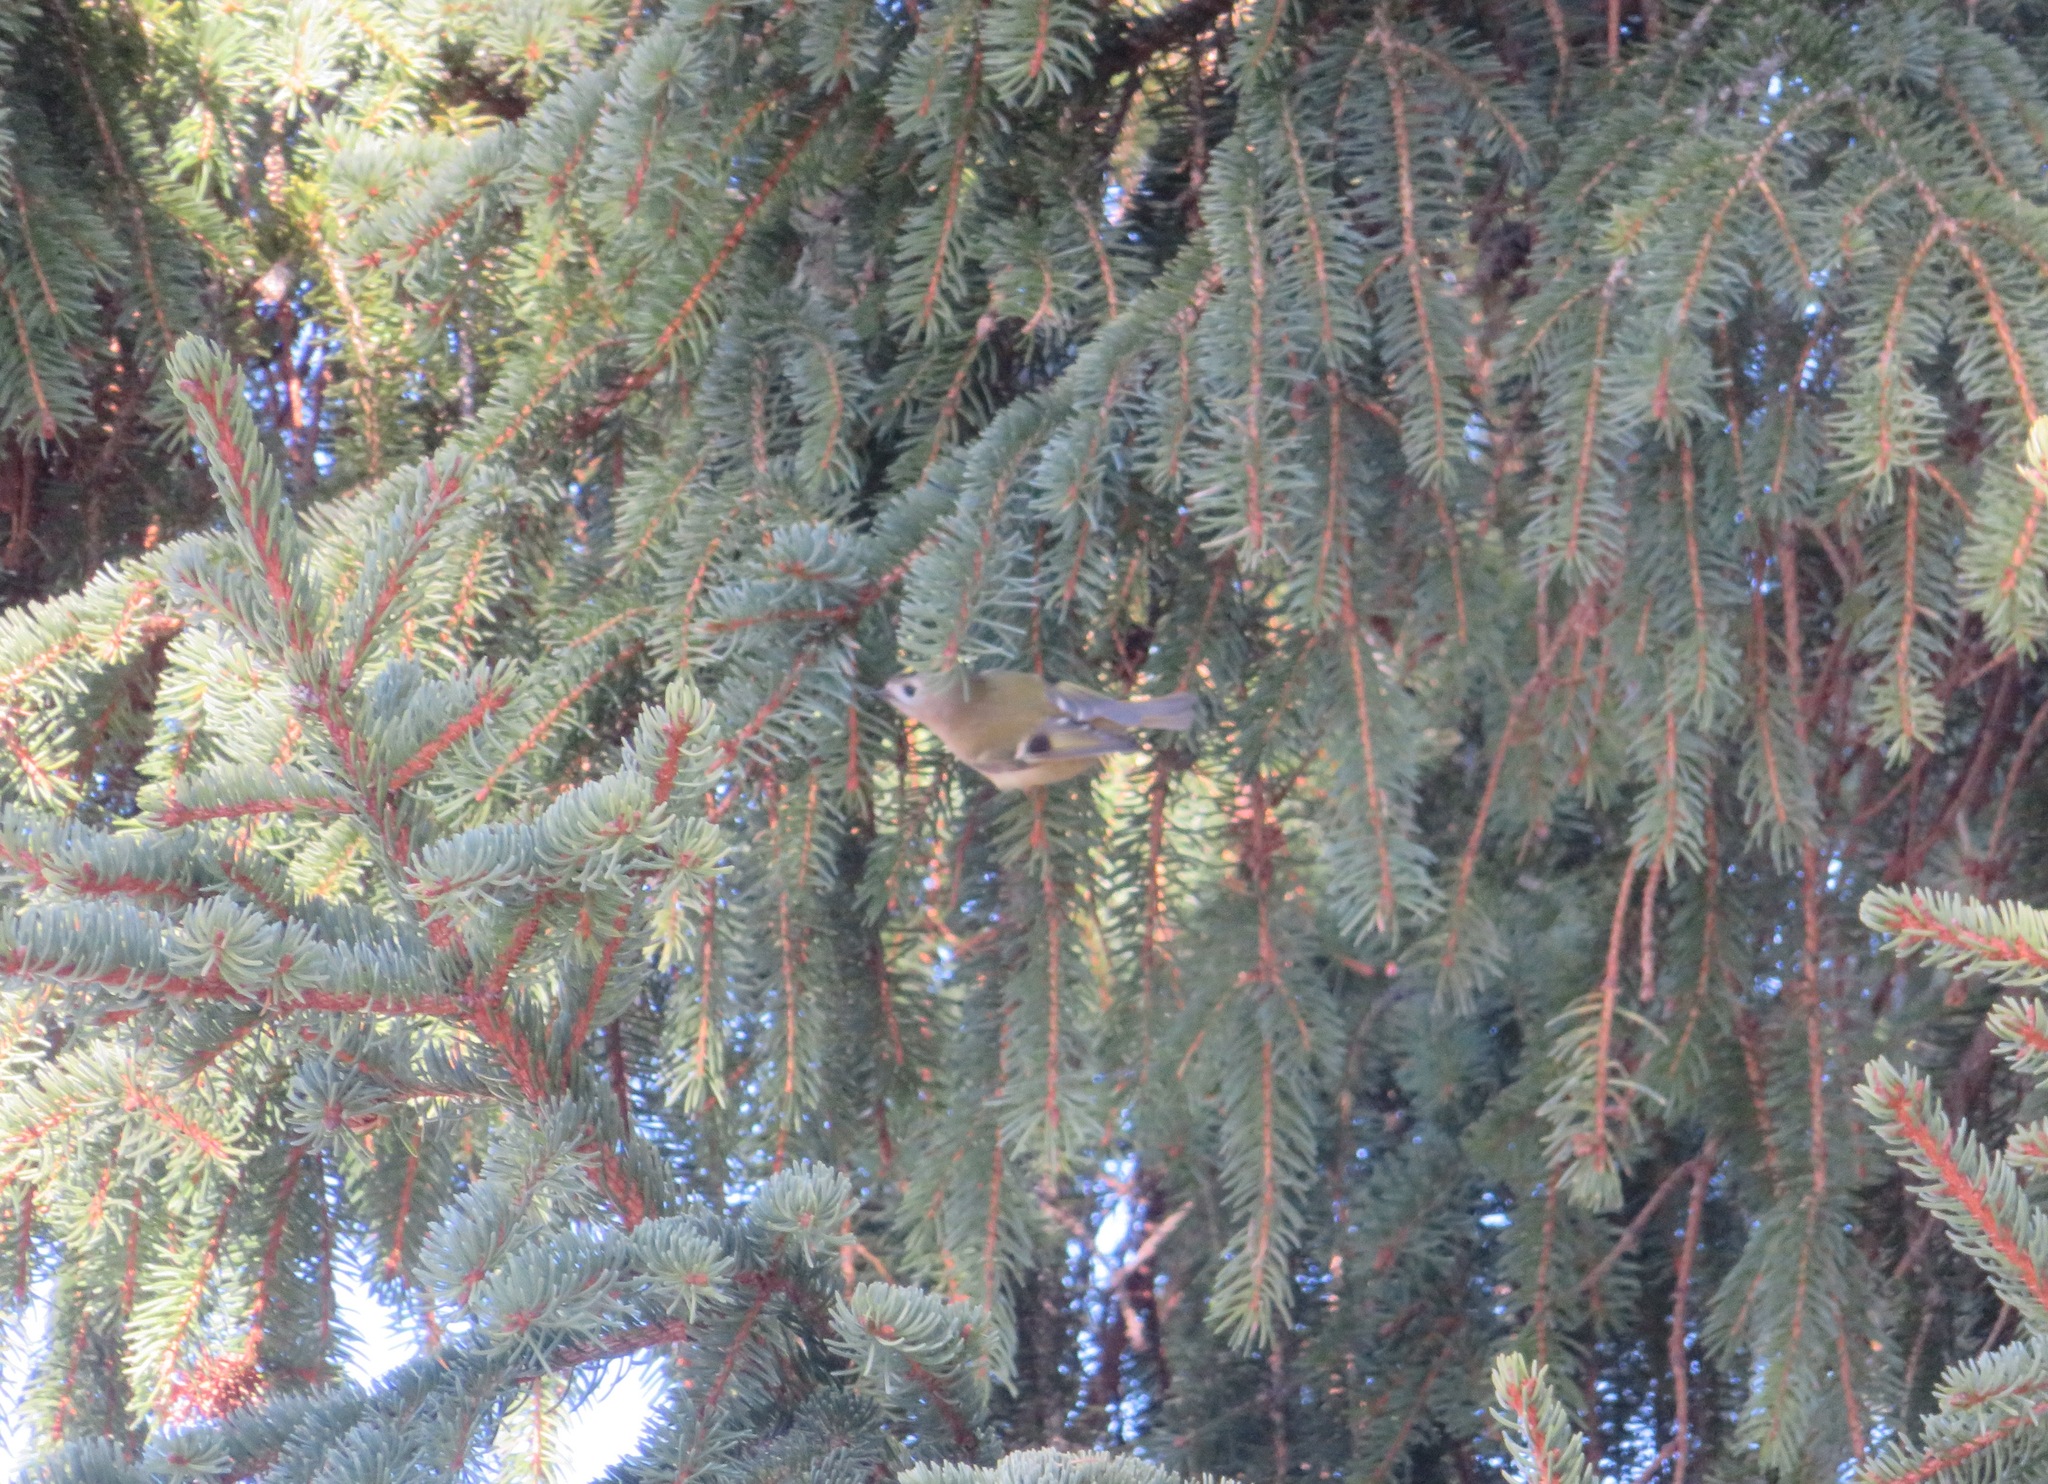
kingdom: Animalia
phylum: Chordata
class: Aves
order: Passeriformes
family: Regulidae
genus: Regulus
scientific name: Regulus regulus
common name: Goldcrest
